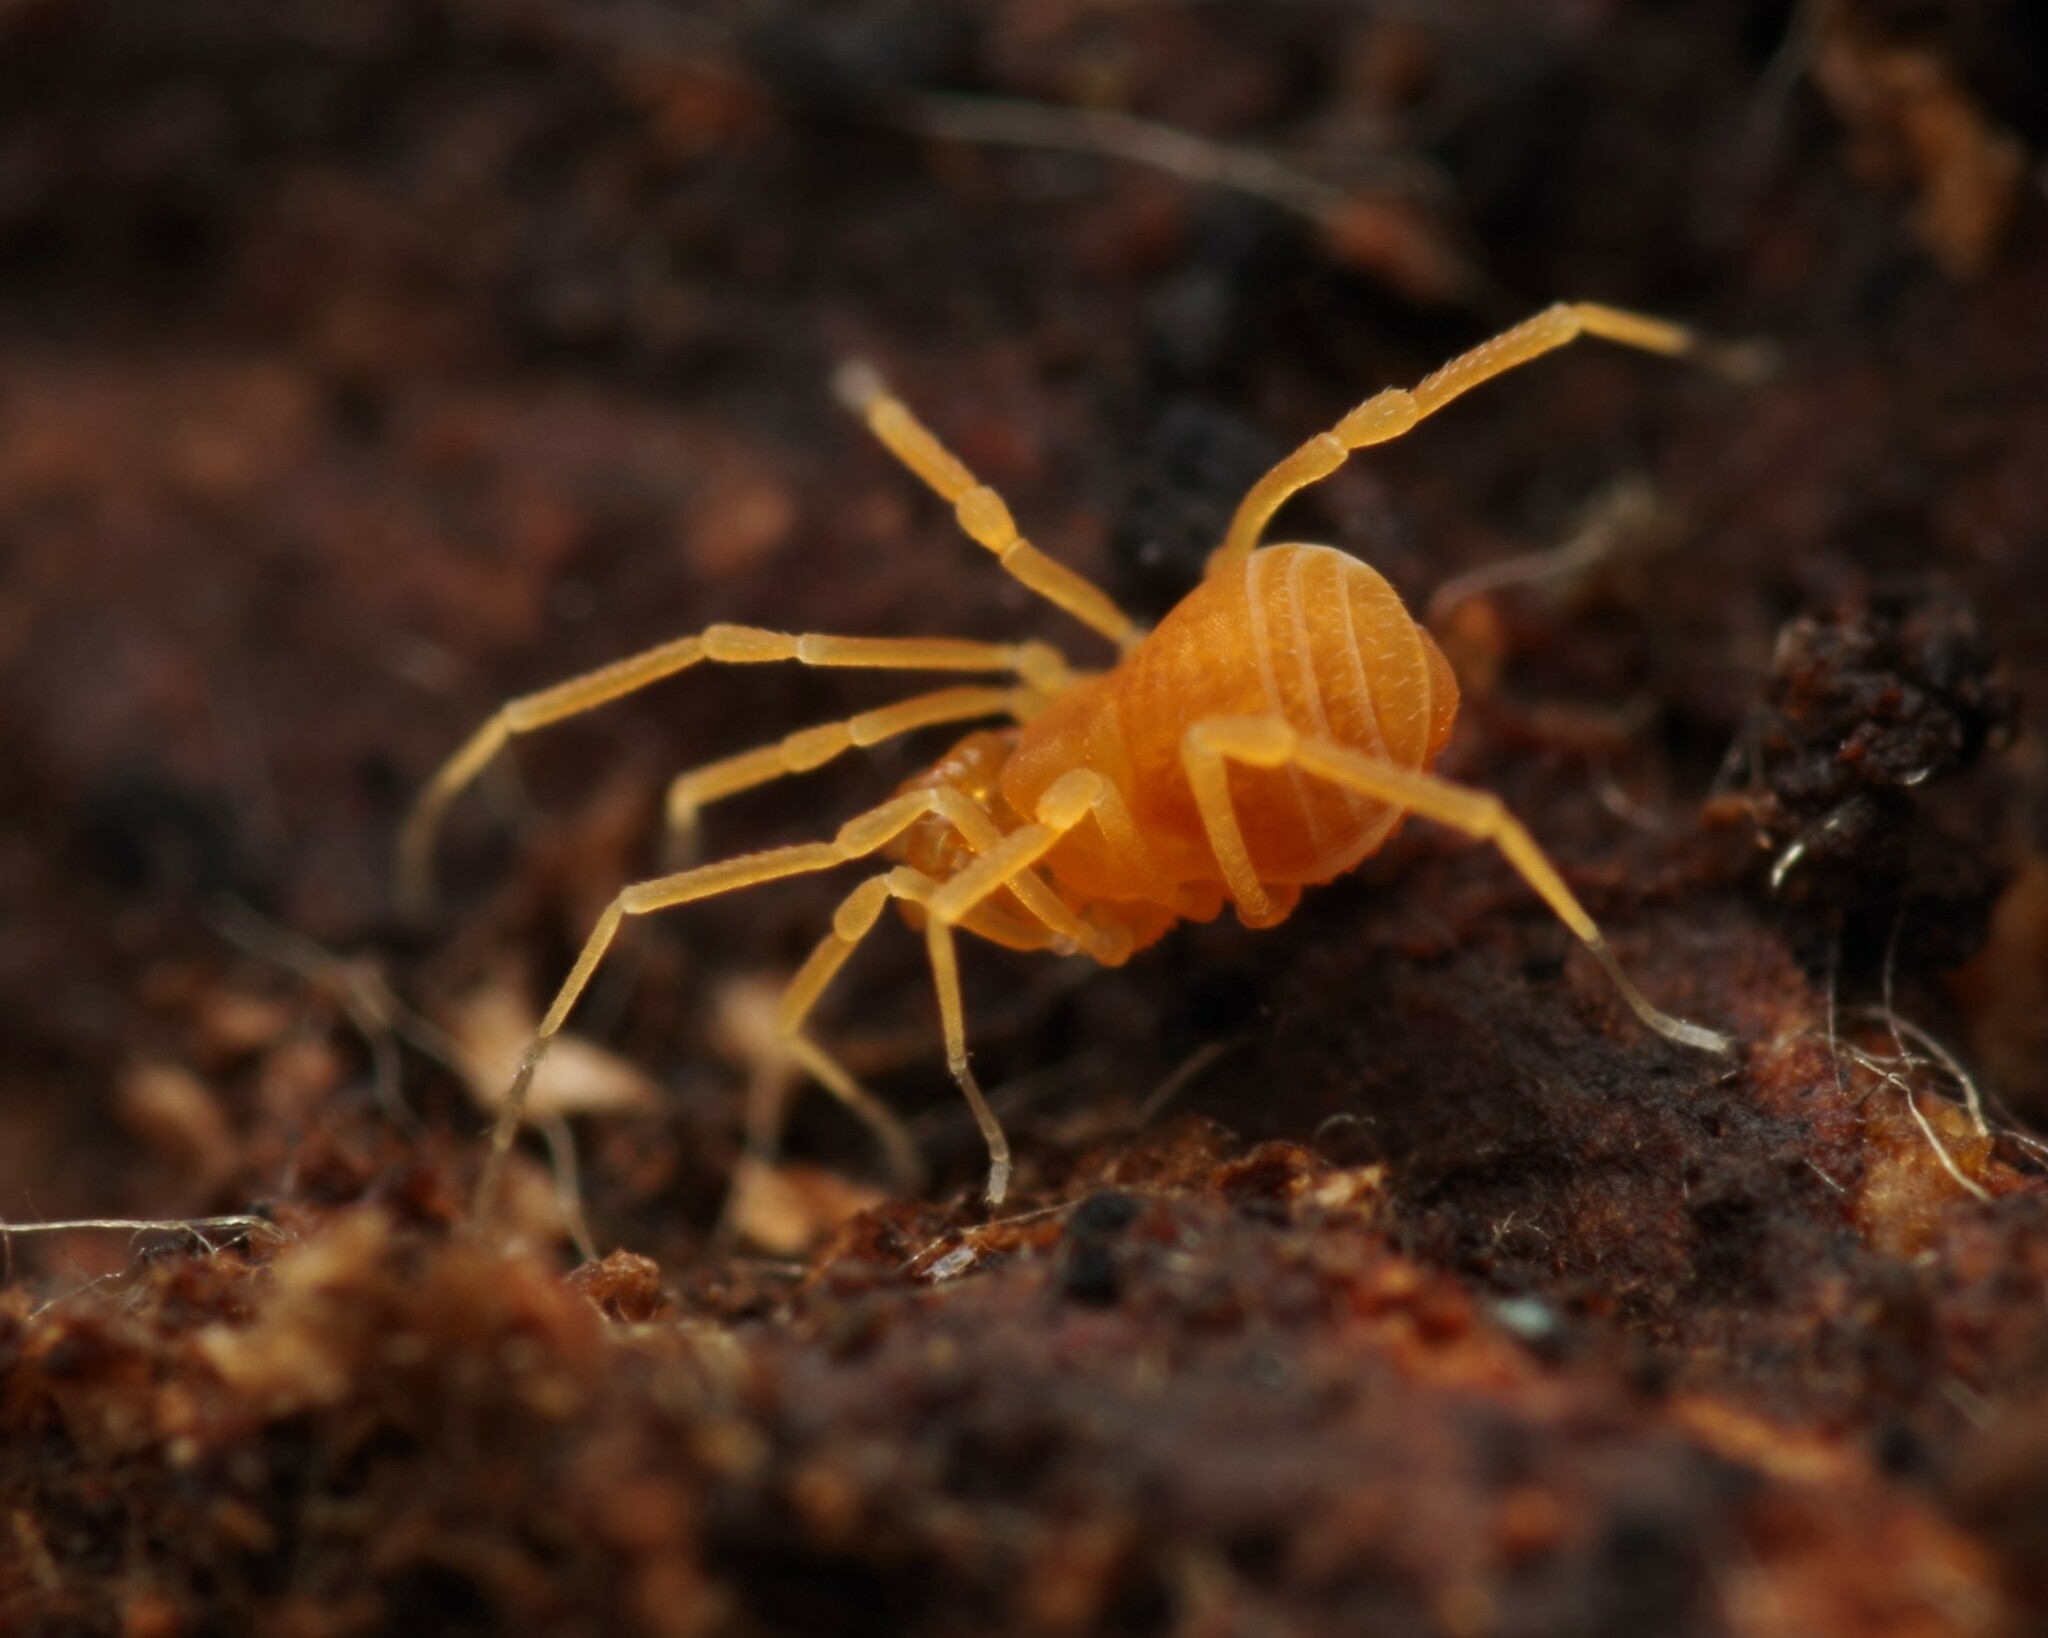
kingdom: Animalia
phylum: Arthropoda
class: Arachnida
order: Opiliones
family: Phalangodidae
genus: Scotolemon
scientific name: Scotolemon doriae
